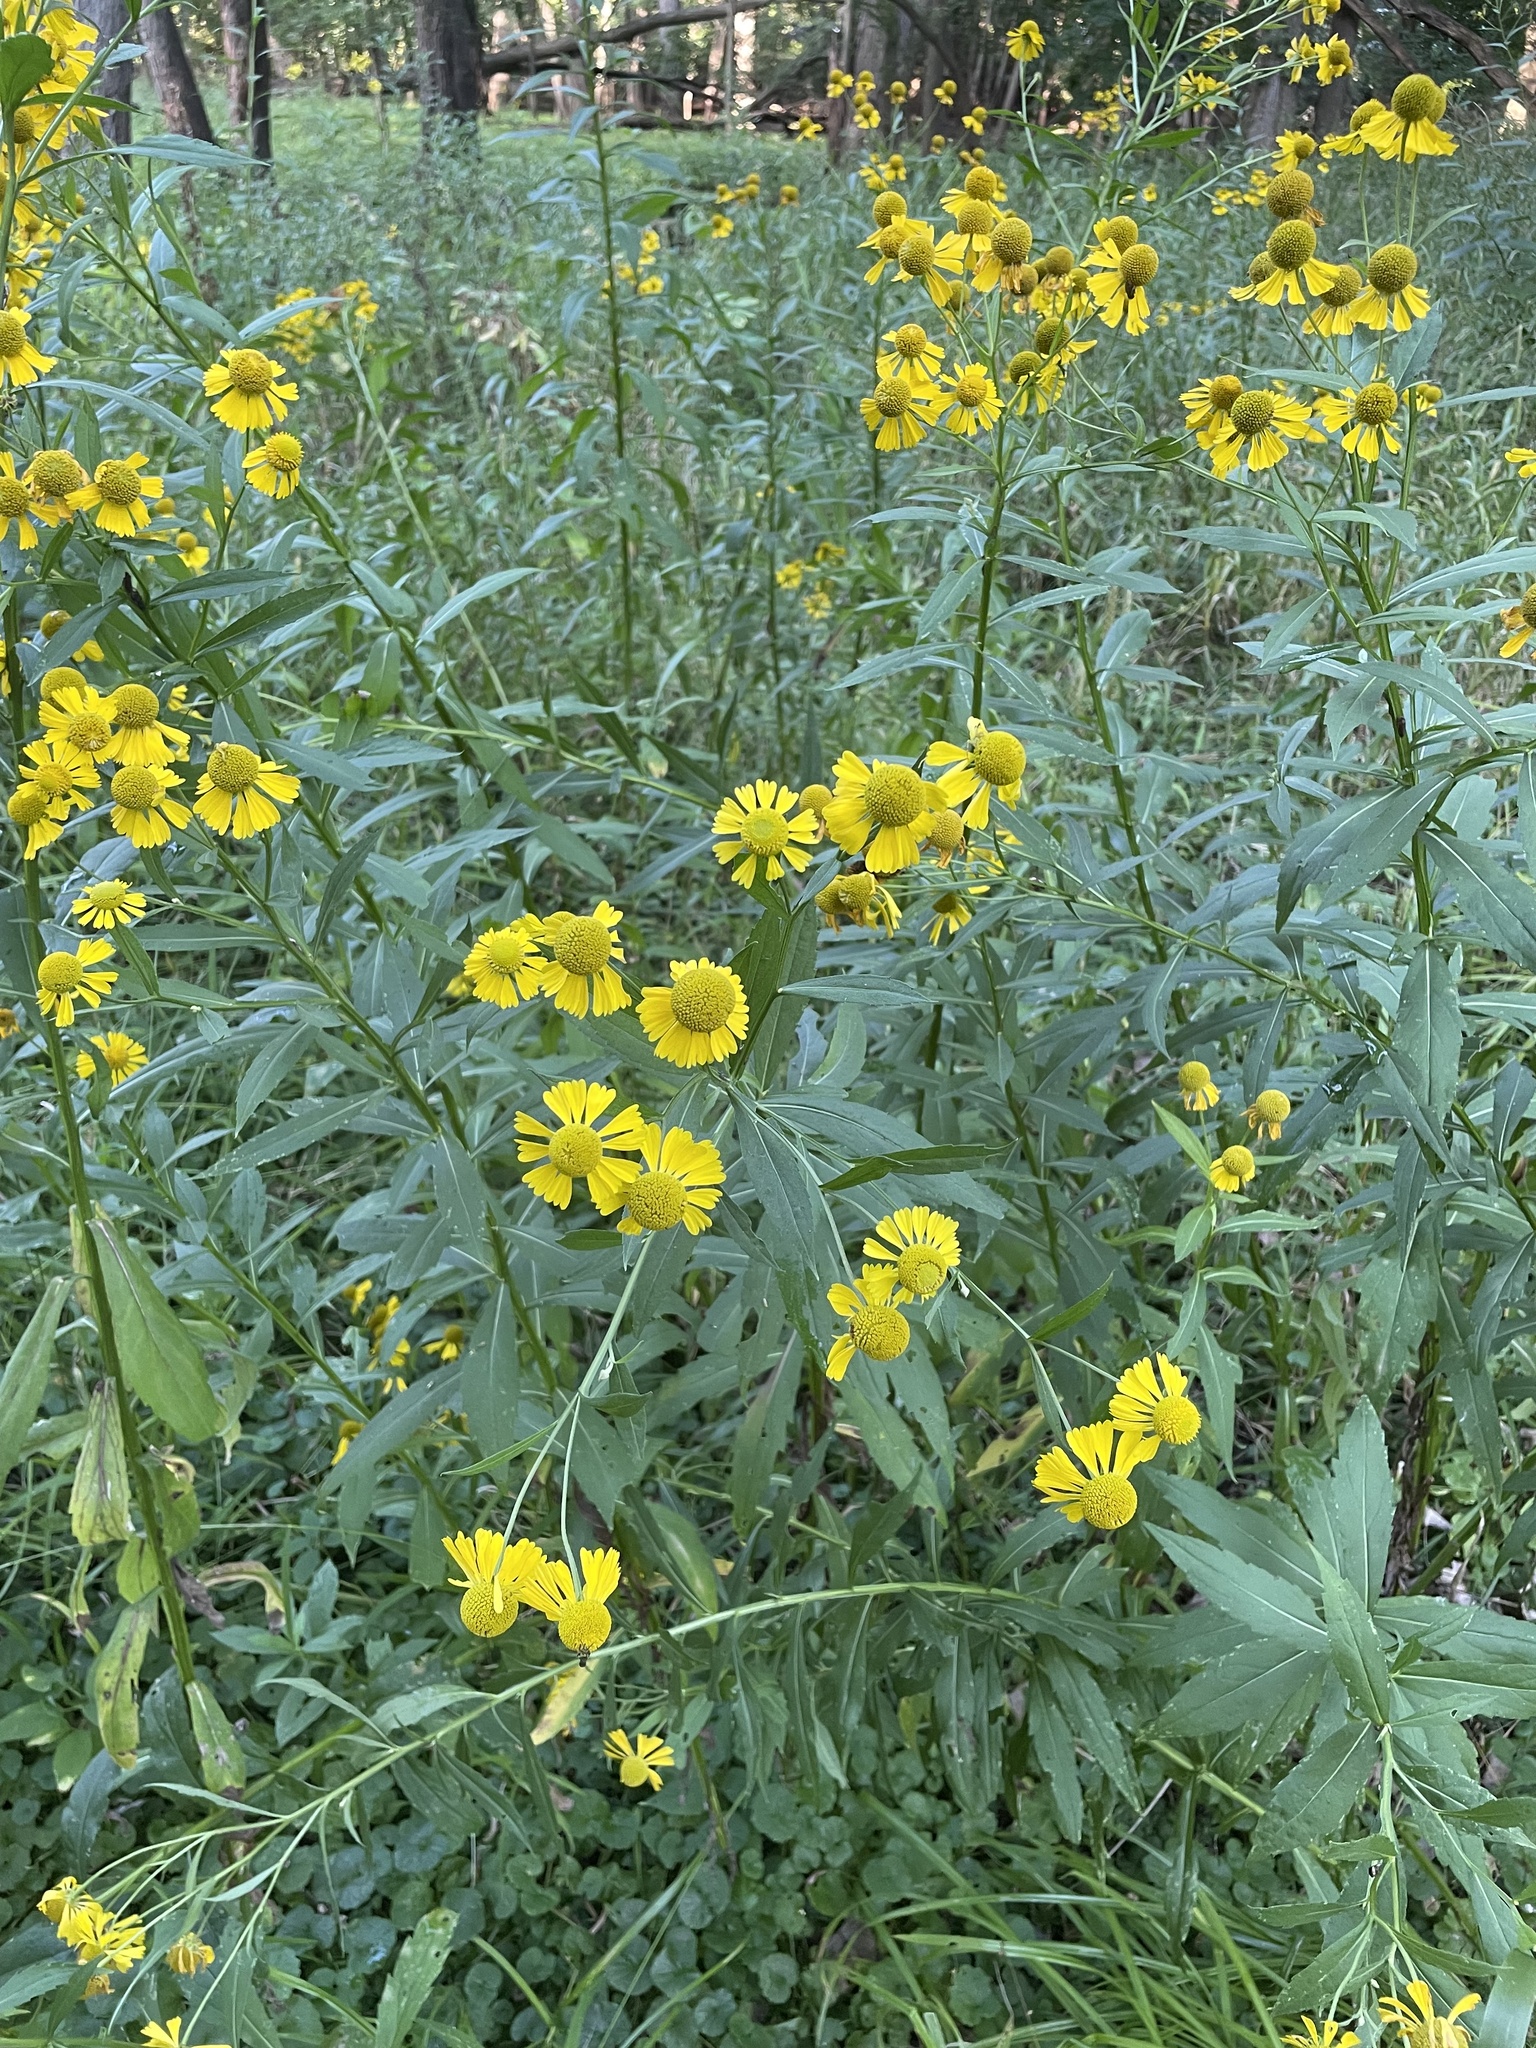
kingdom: Plantae
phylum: Tracheophyta
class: Magnoliopsida
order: Asterales
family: Asteraceae
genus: Helenium
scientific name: Helenium autumnale
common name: Sneezeweed
